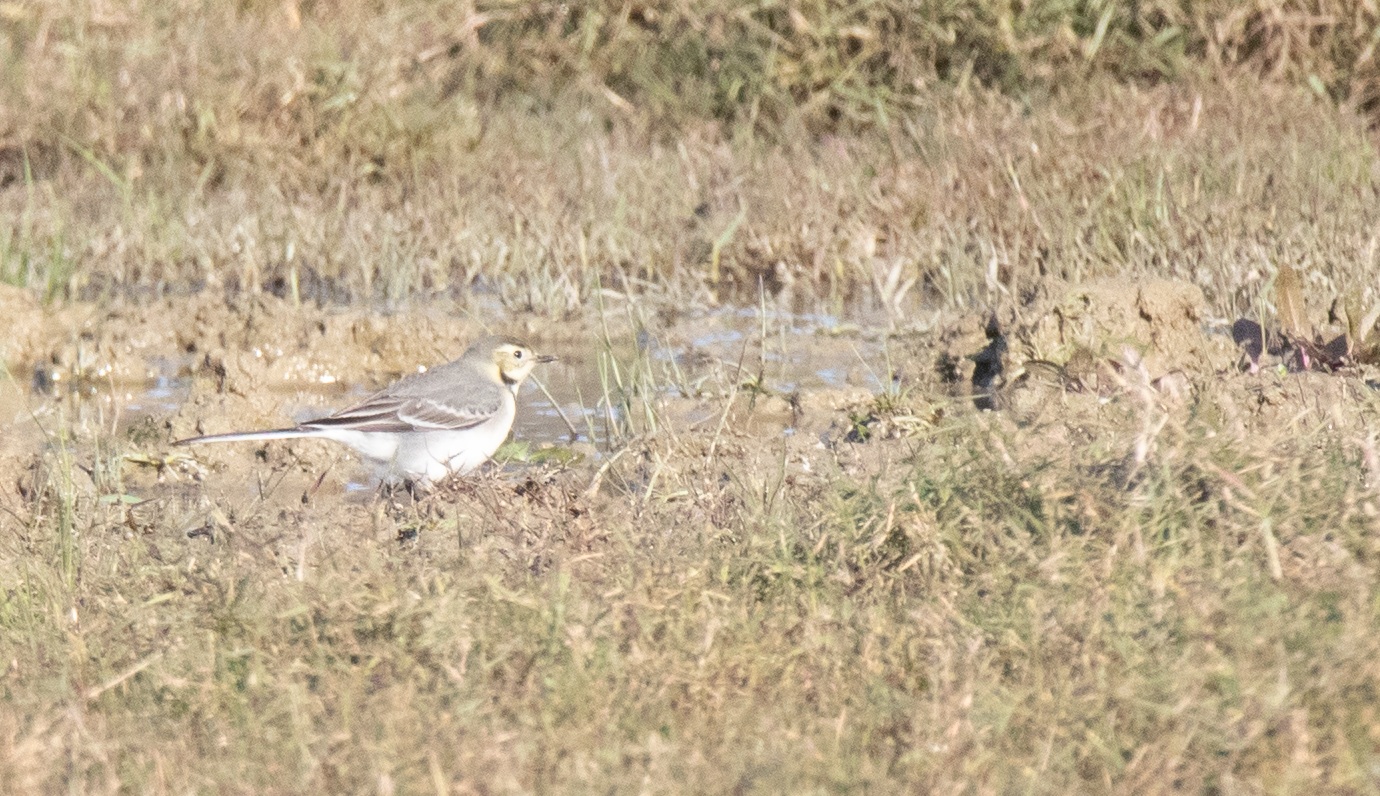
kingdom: Animalia
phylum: Chordata
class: Aves
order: Passeriformes
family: Motacillidae
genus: Motacilla
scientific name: Motacilla alba
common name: White wagtail
